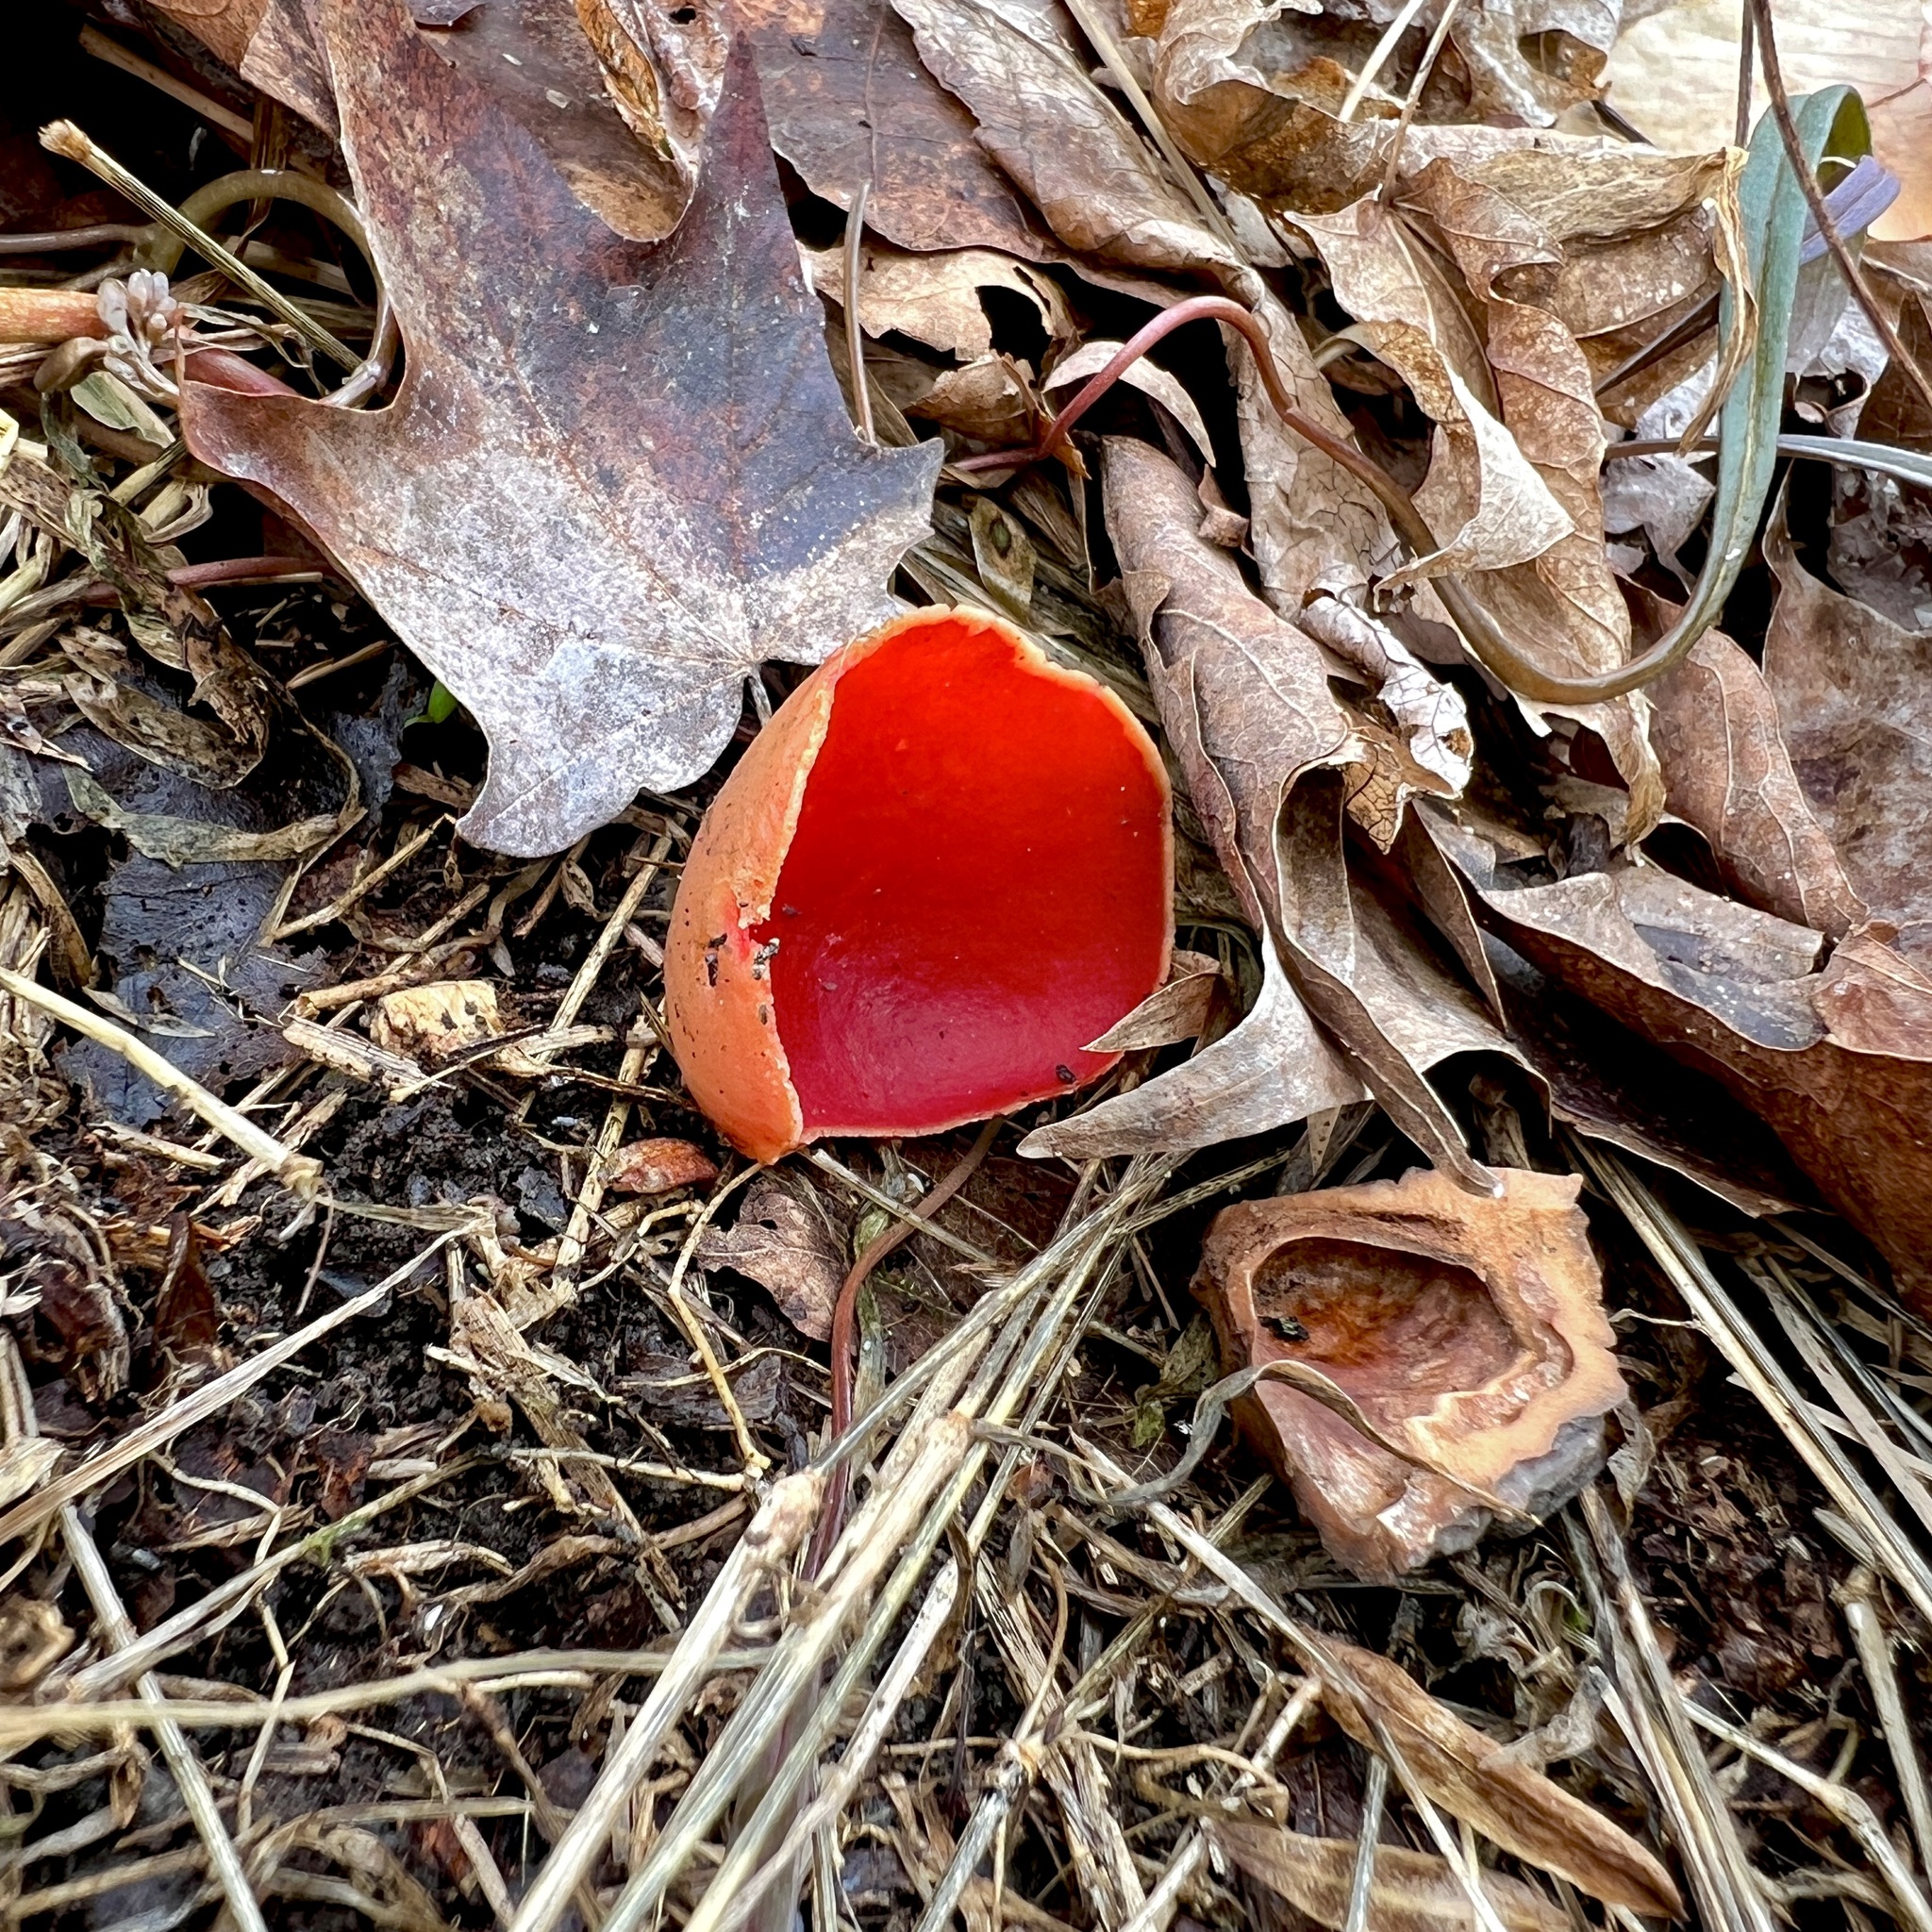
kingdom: Fungi
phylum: Ascomycota
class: Pezizomycetes
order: Pezizales
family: Sarcoscyphaceae
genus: Sarcoscypha
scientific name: Sarcoscypha austriaca
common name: Scarlet elfcup
